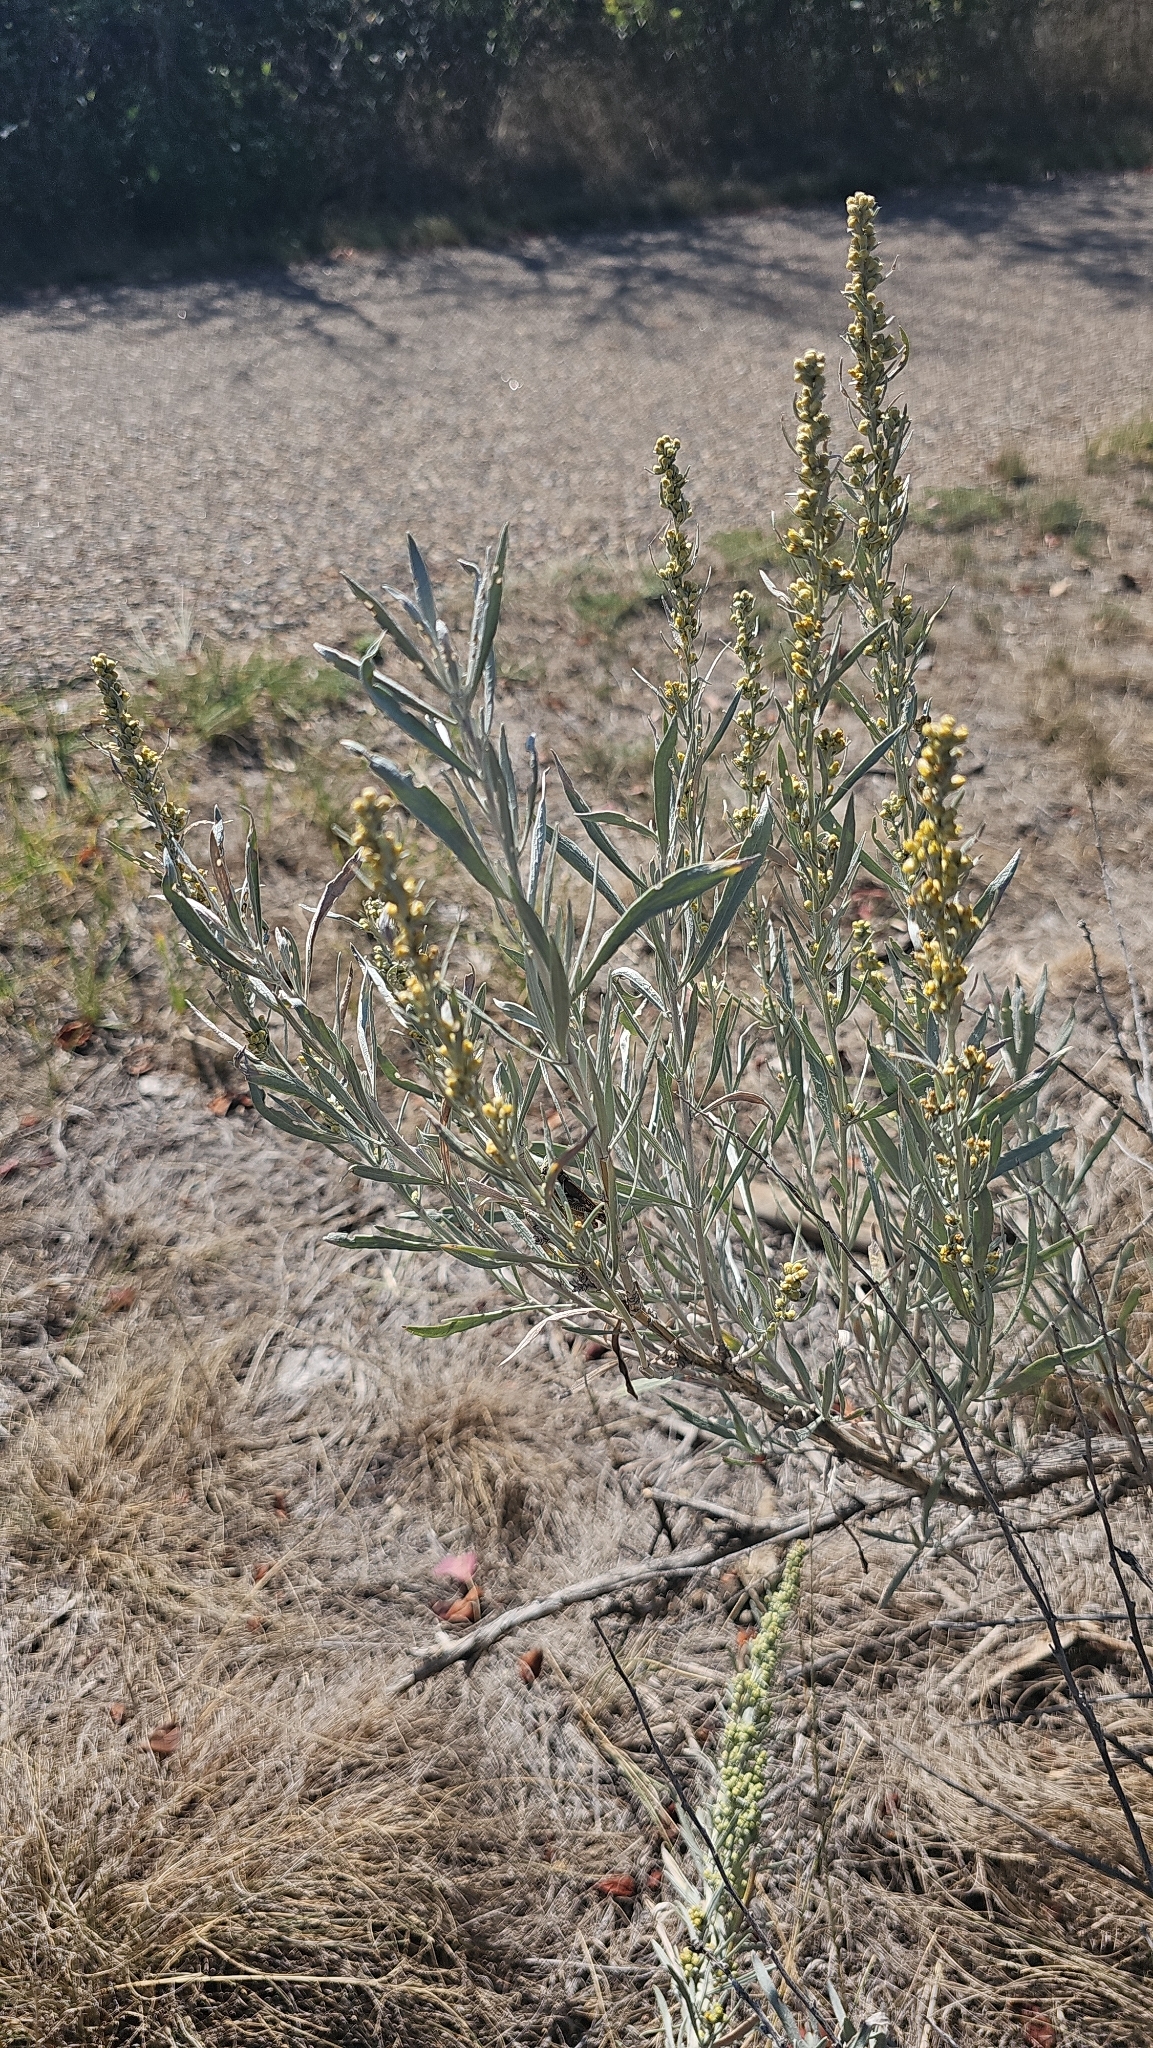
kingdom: Plantae
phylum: Tracheophyta
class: Magnoliopsida
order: Asterales
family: Asteraceae
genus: Artemisia
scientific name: Artemisia cana
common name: Silver sagebrush
